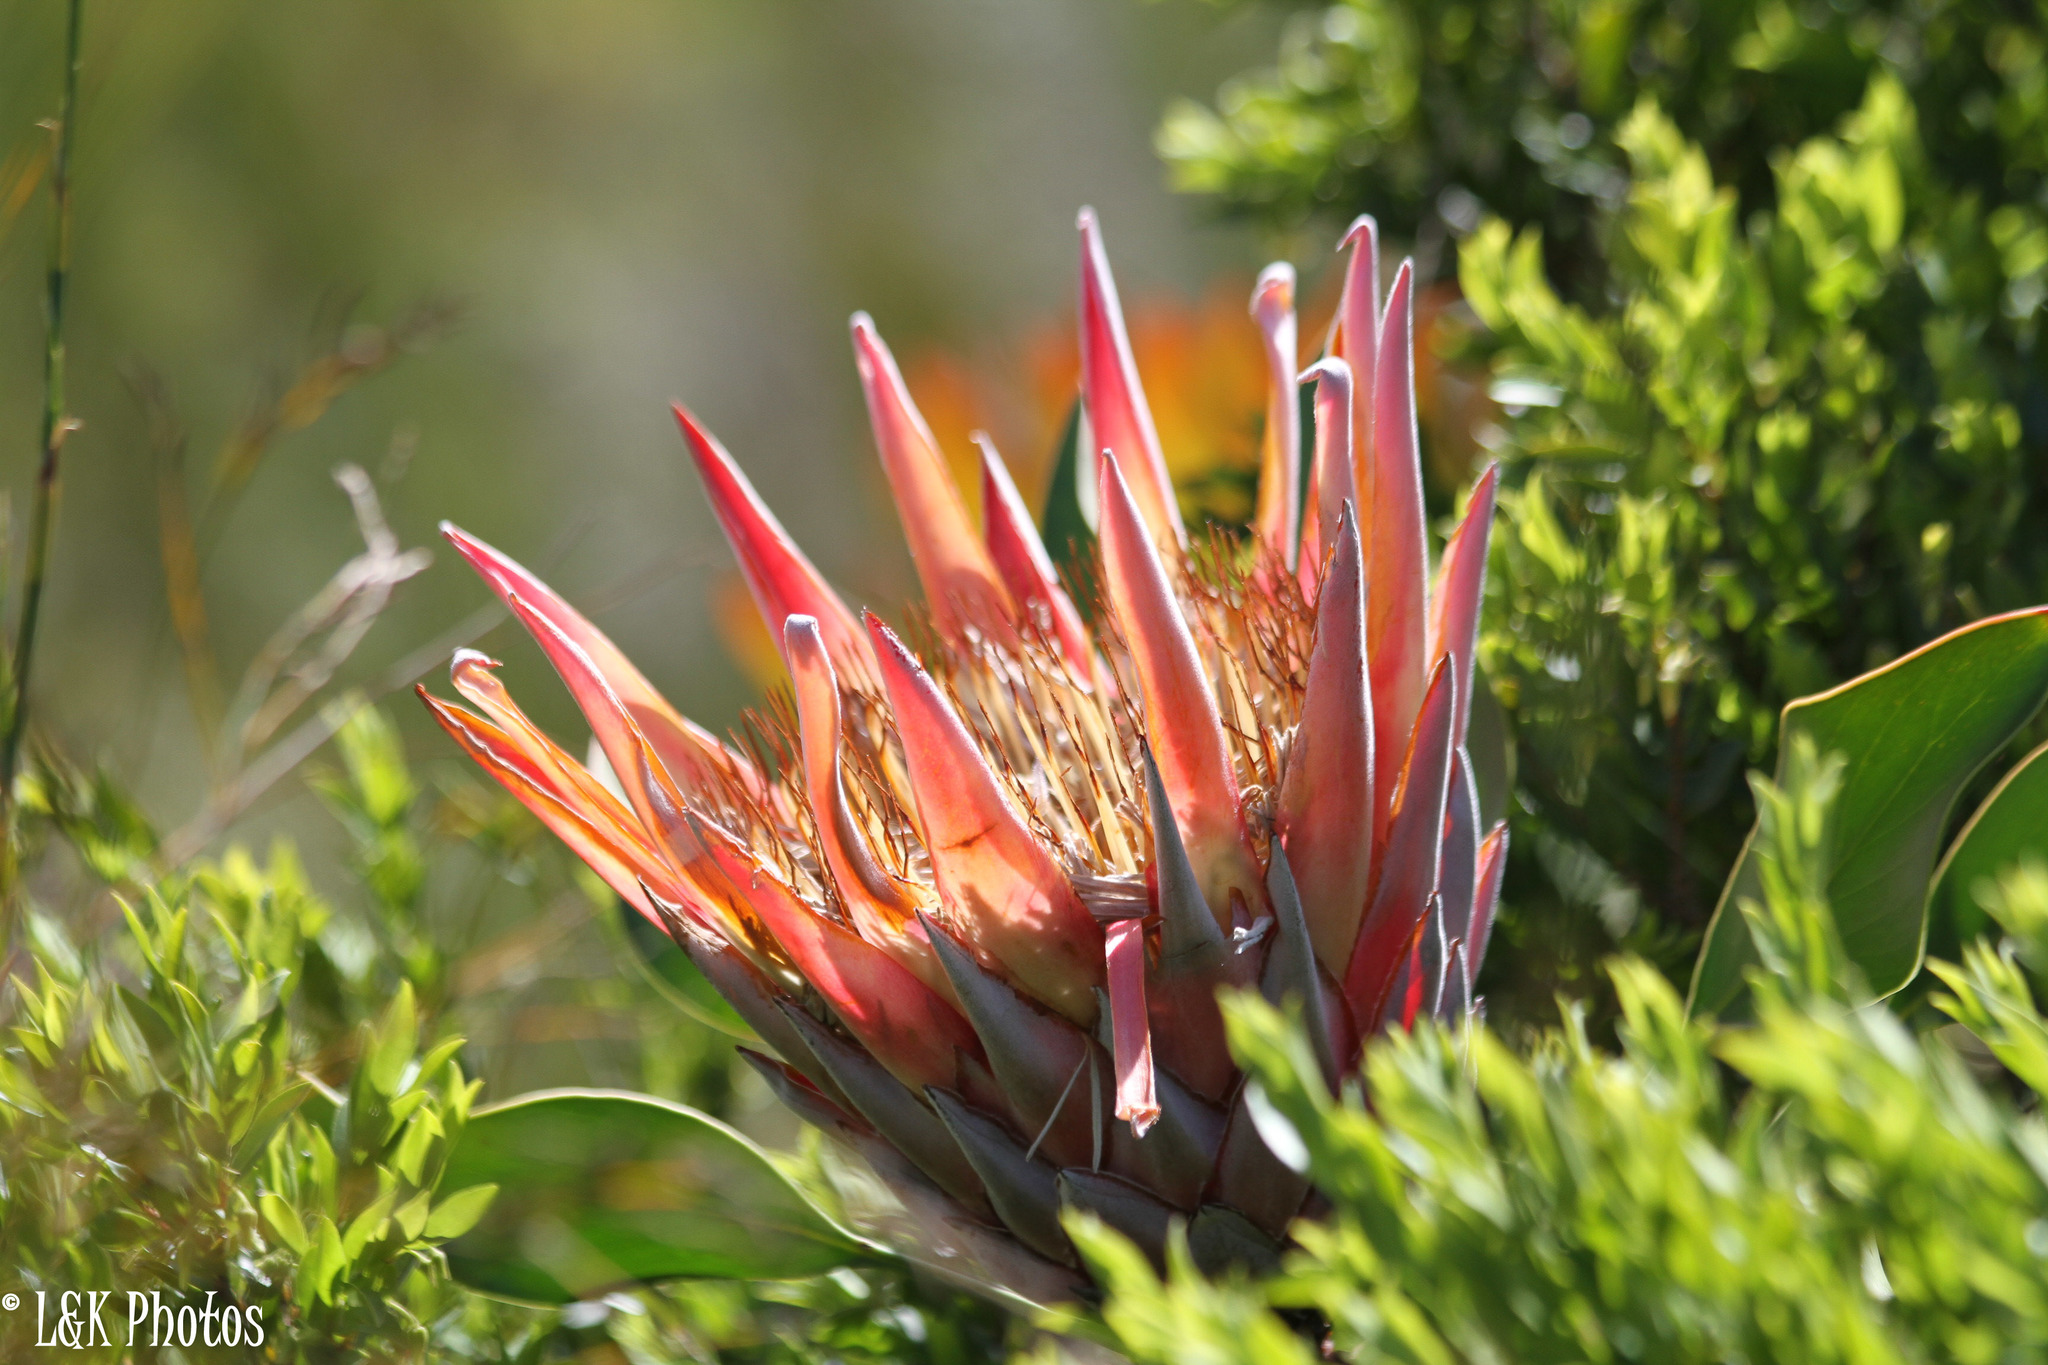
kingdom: Plantae
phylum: Tracheophyta
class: Magnoliopsida
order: Proteales
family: Proteaceae
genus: Protea
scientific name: Protea cynaroides
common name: King protea
